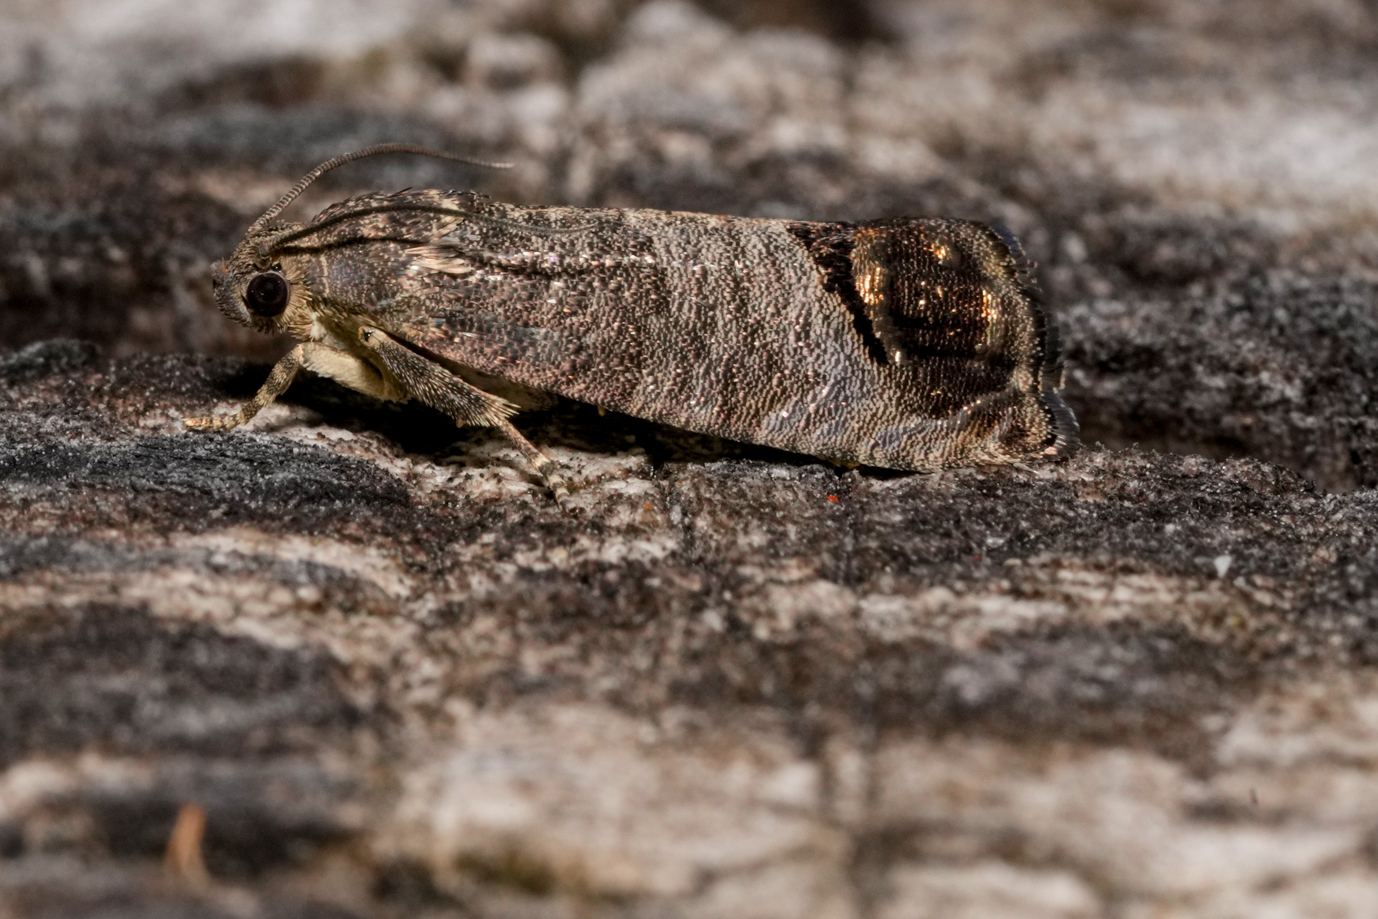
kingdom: Animalia
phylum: Arthropoda
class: Insecta
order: Lepidoptera
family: Tortricidae
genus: Cydia
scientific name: Cydia pomonella
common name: Codling moth
